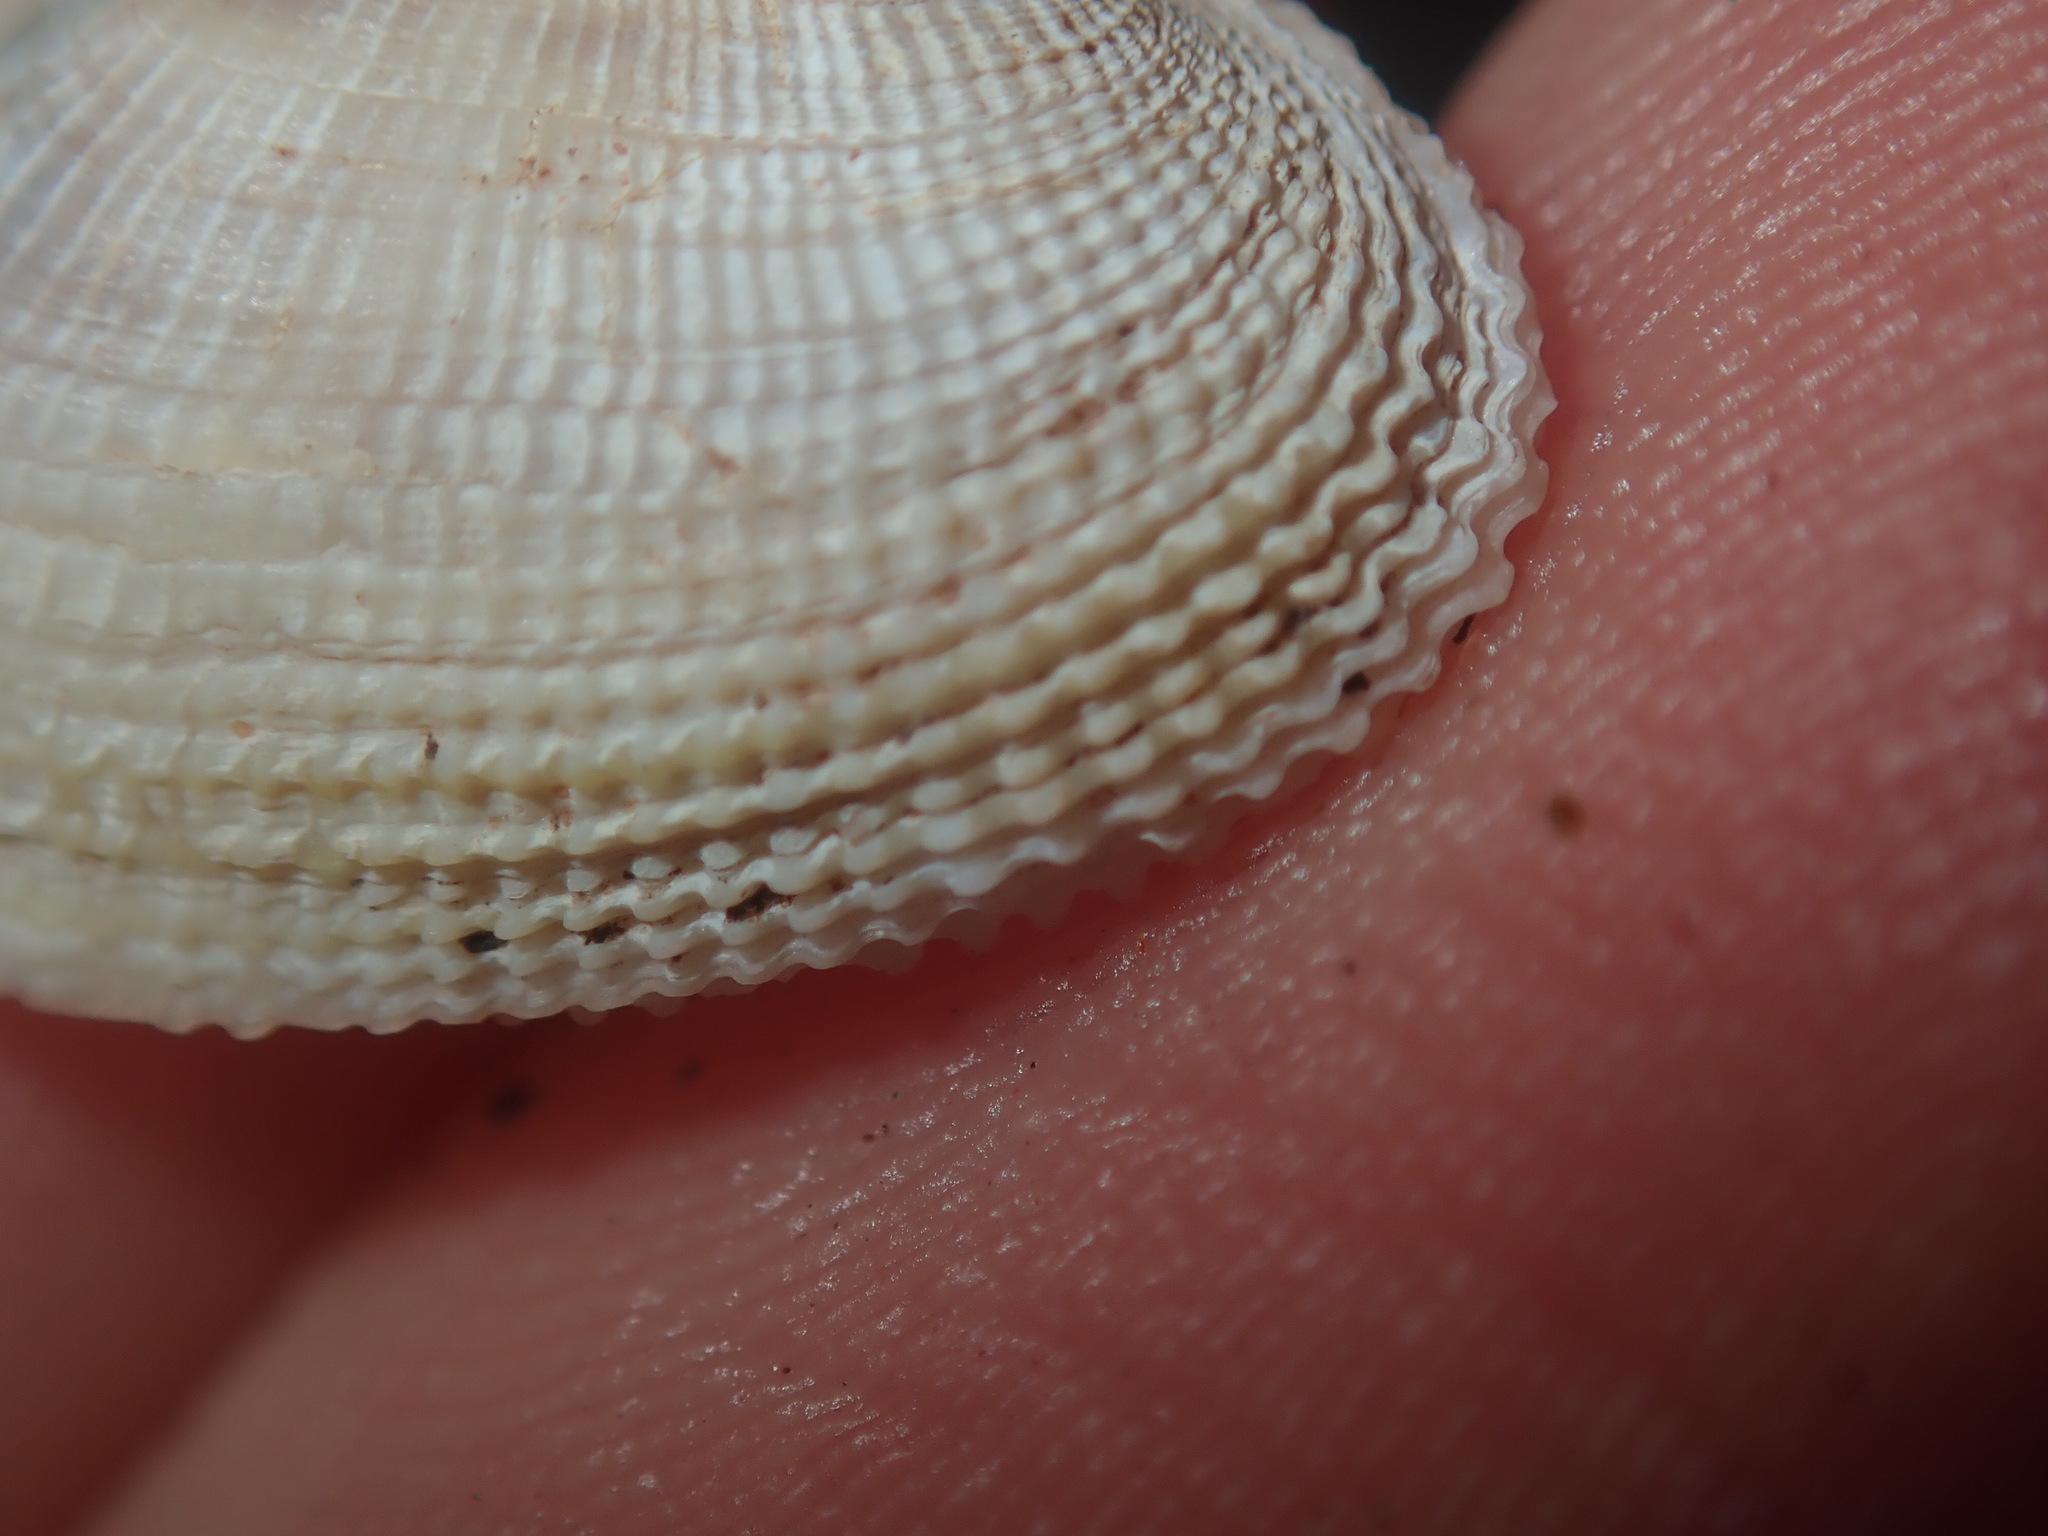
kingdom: Animalia
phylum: Mollusca
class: Bivalvia
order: Venerida
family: Veneridae
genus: Irus
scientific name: Irus crenatus
